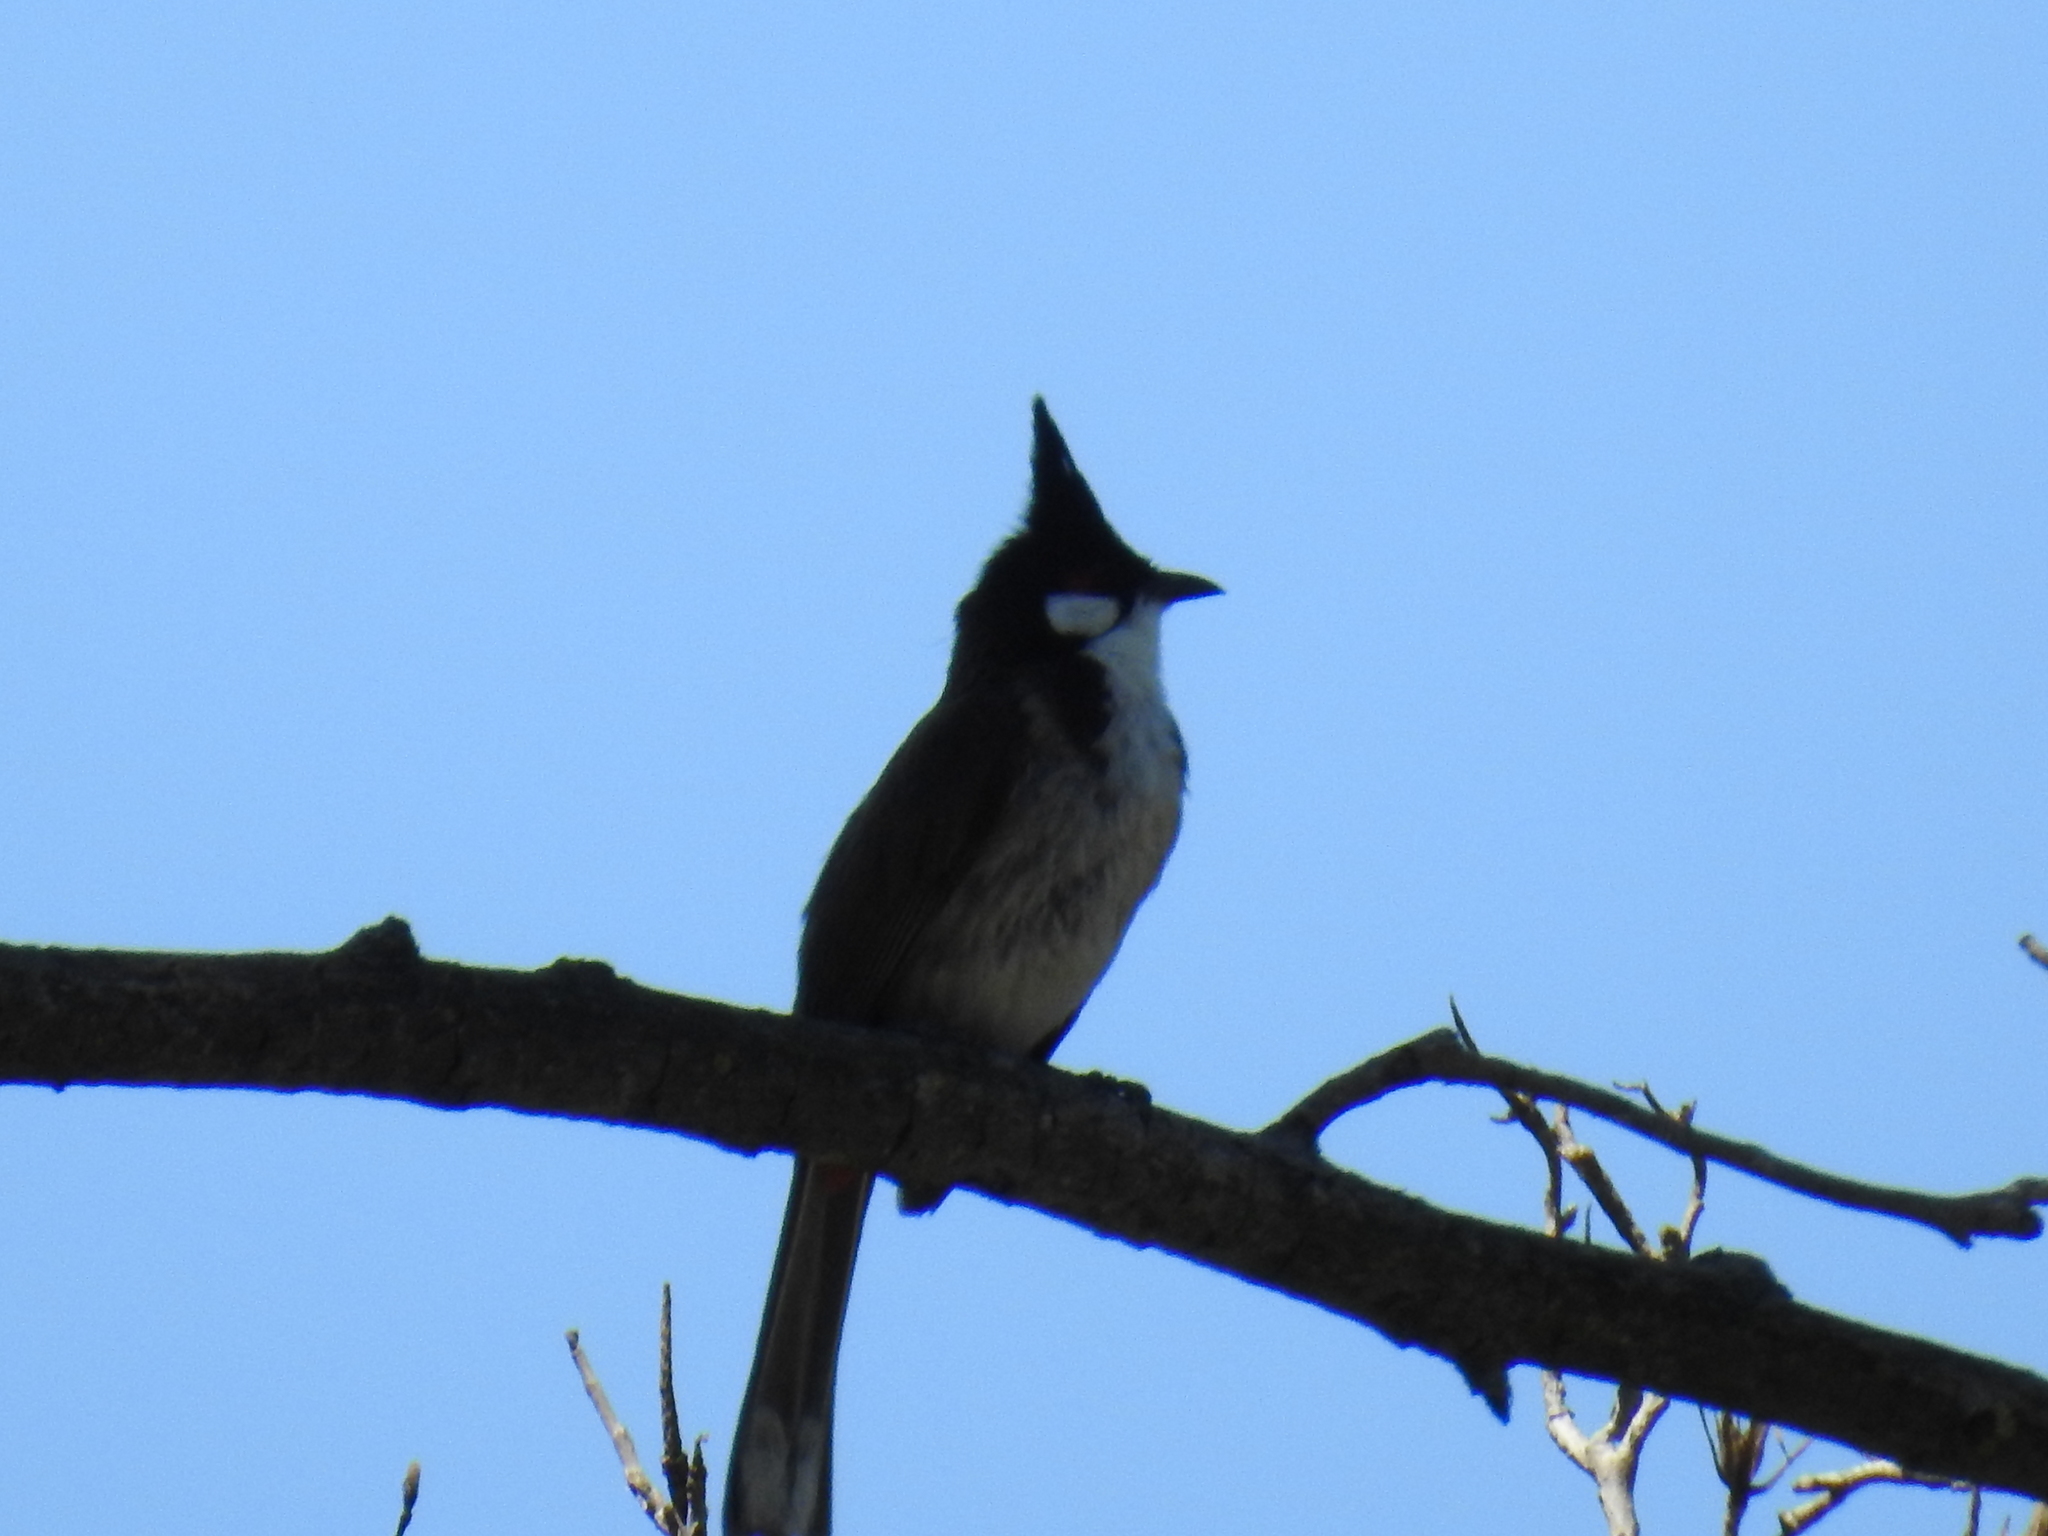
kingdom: Animalia
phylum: Chordata
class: Aves
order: Passeriformes
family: Pycnonotidae
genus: Pycnonotus
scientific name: Pycnonotus jocosus
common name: Red-whiskered bulbul
